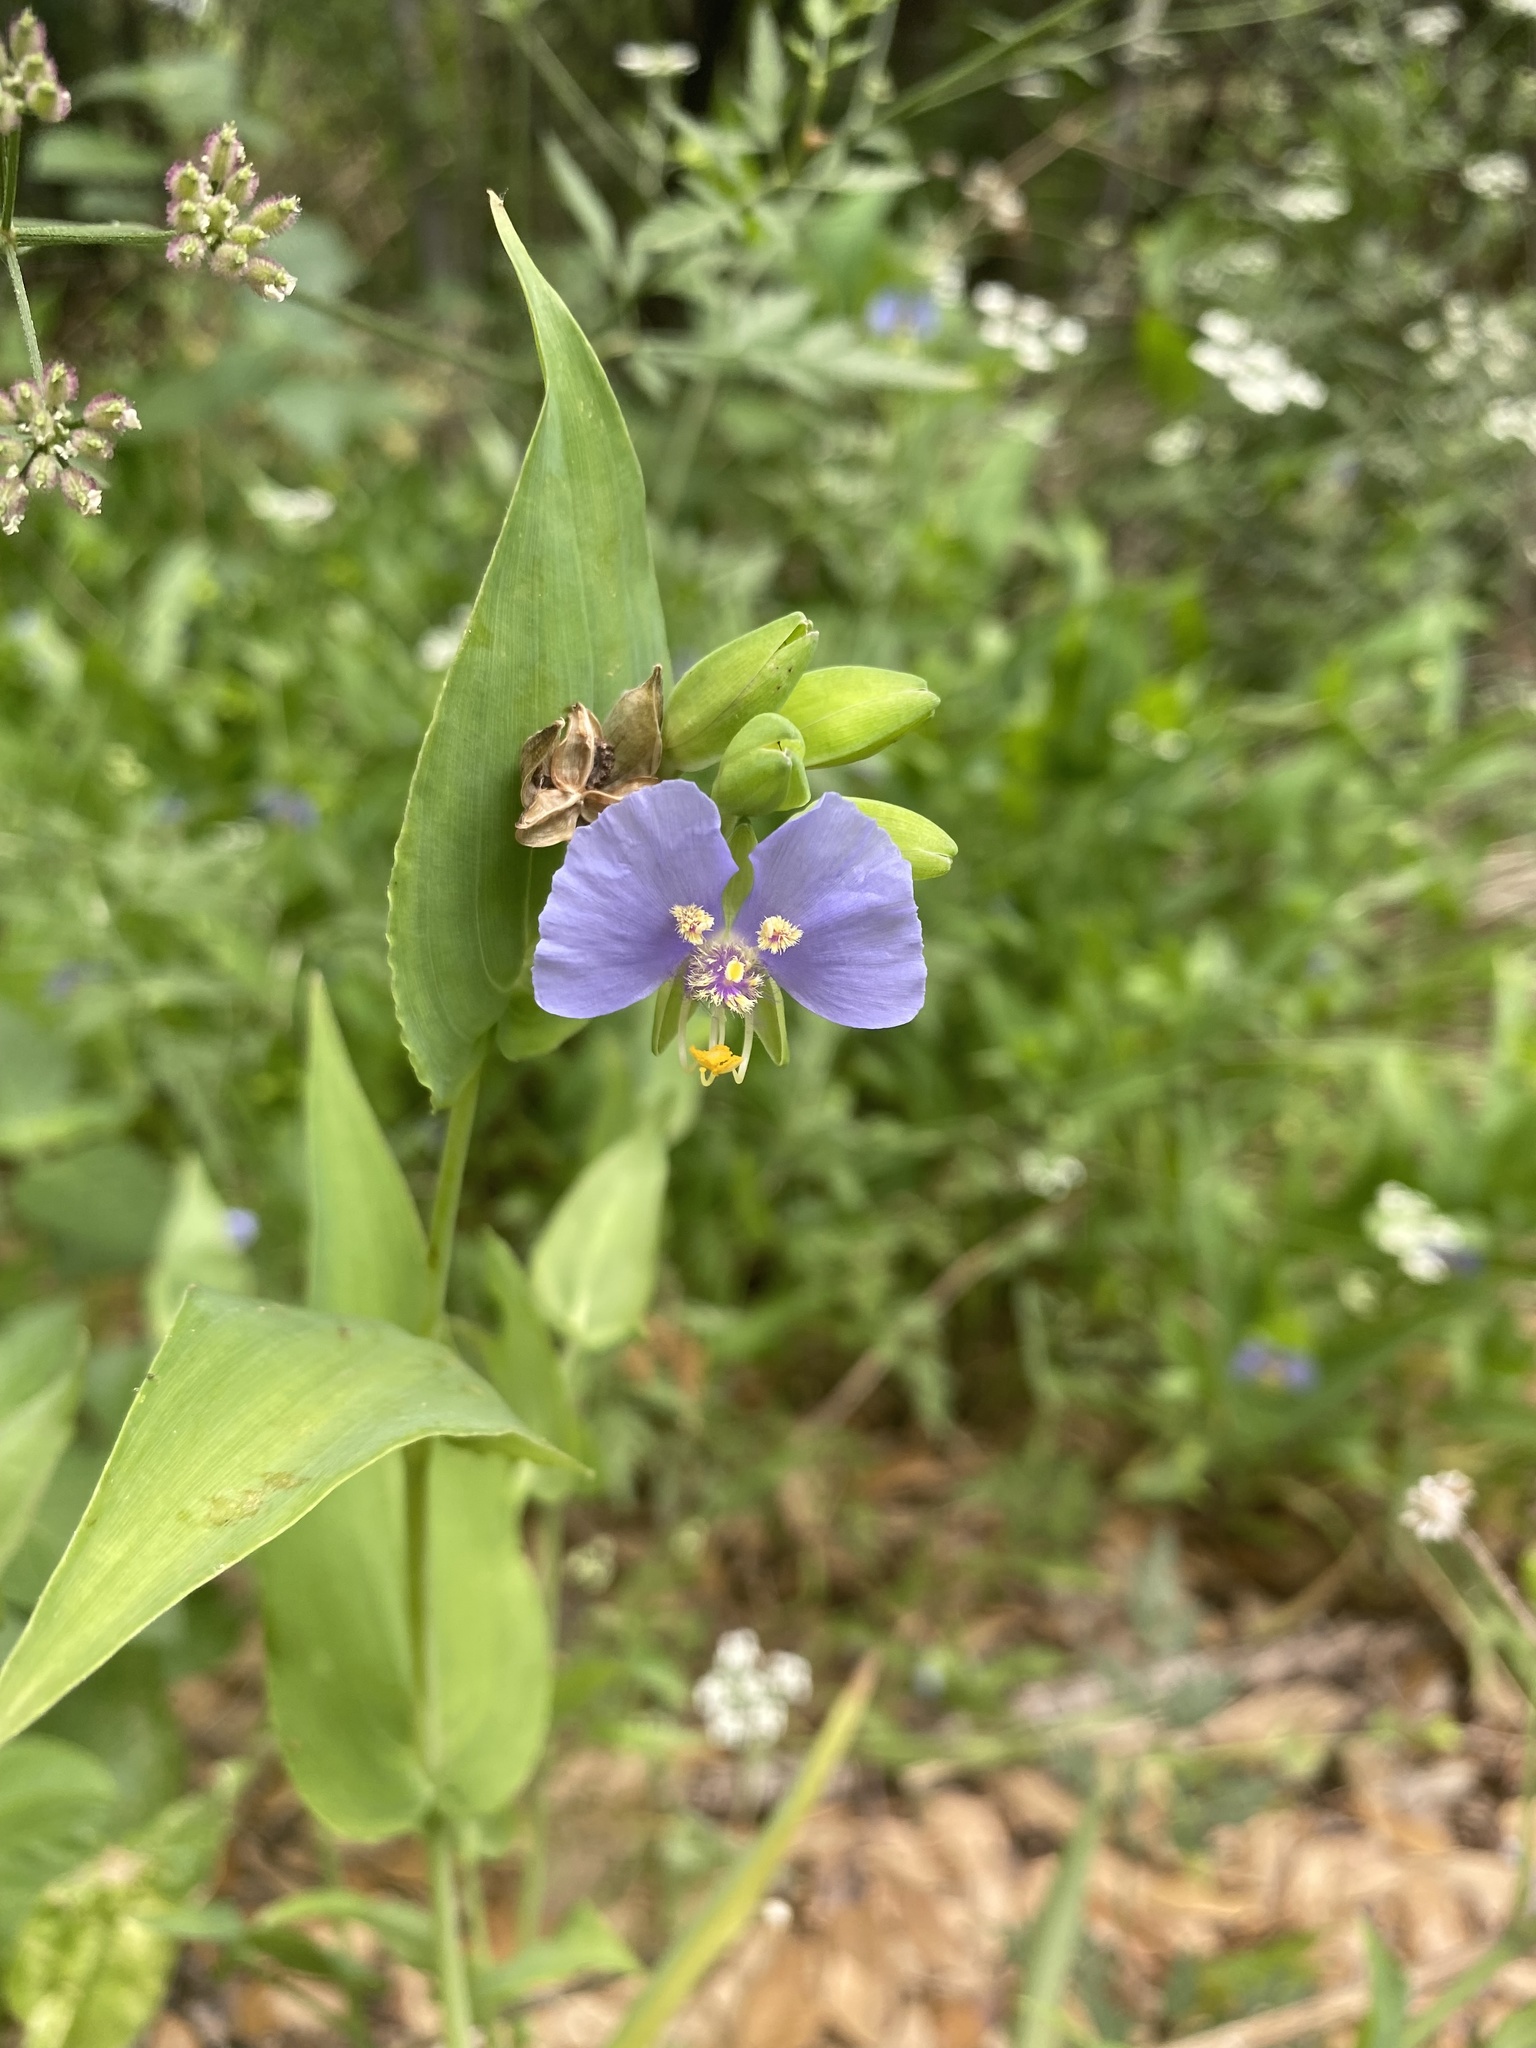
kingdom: Plantae
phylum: Tracheophyta
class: Liliopsida
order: Commelinales
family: Commelinaceae
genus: Tinantia
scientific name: Tinantia anomala
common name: False dayflower
